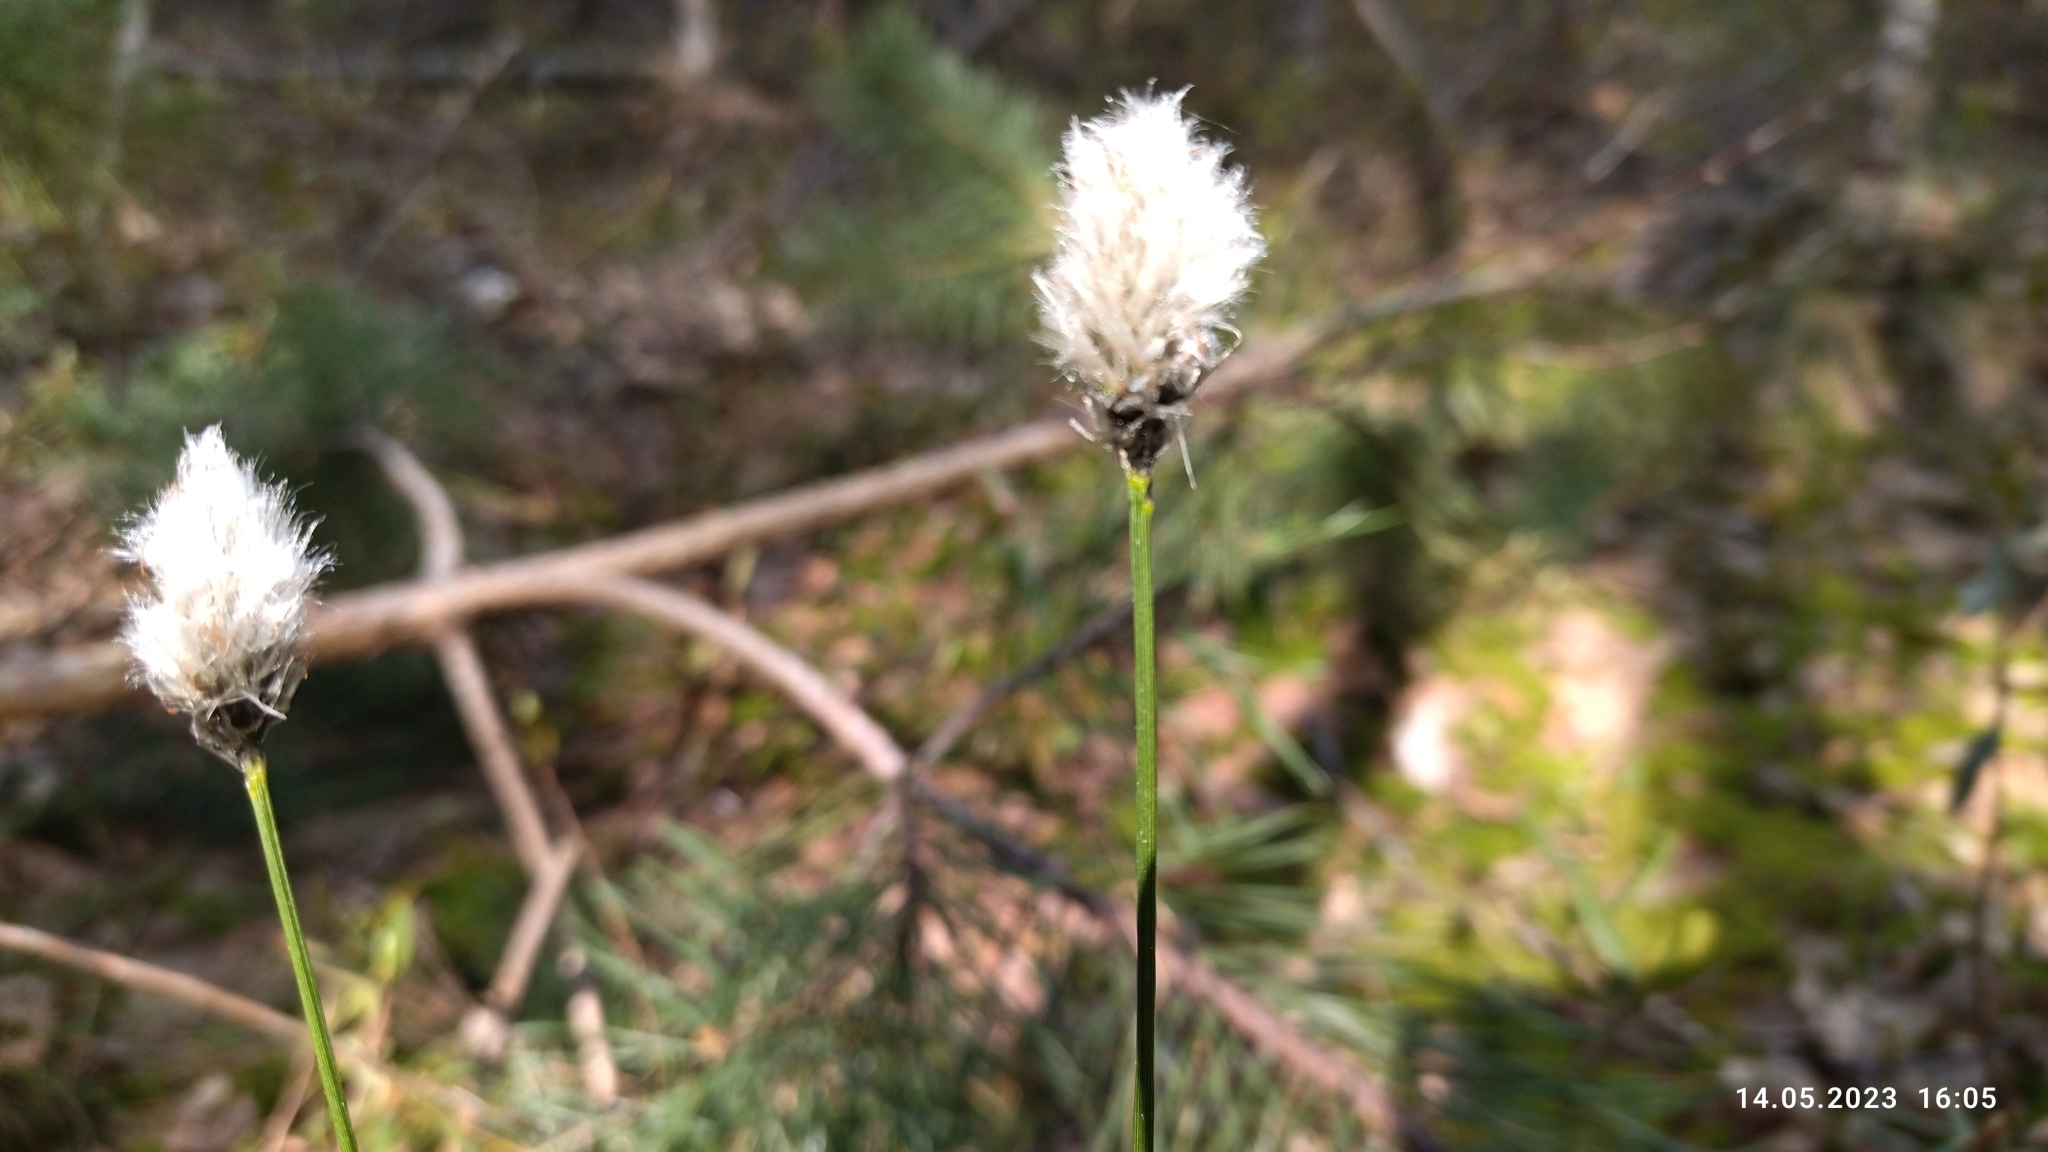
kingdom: Plantae
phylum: Tracheophyta
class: Liliopsida
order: Poales
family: Cyperaceae
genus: Eriophorum
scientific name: Eriophorum vaginatum
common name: Hare's-tail cottongrass
